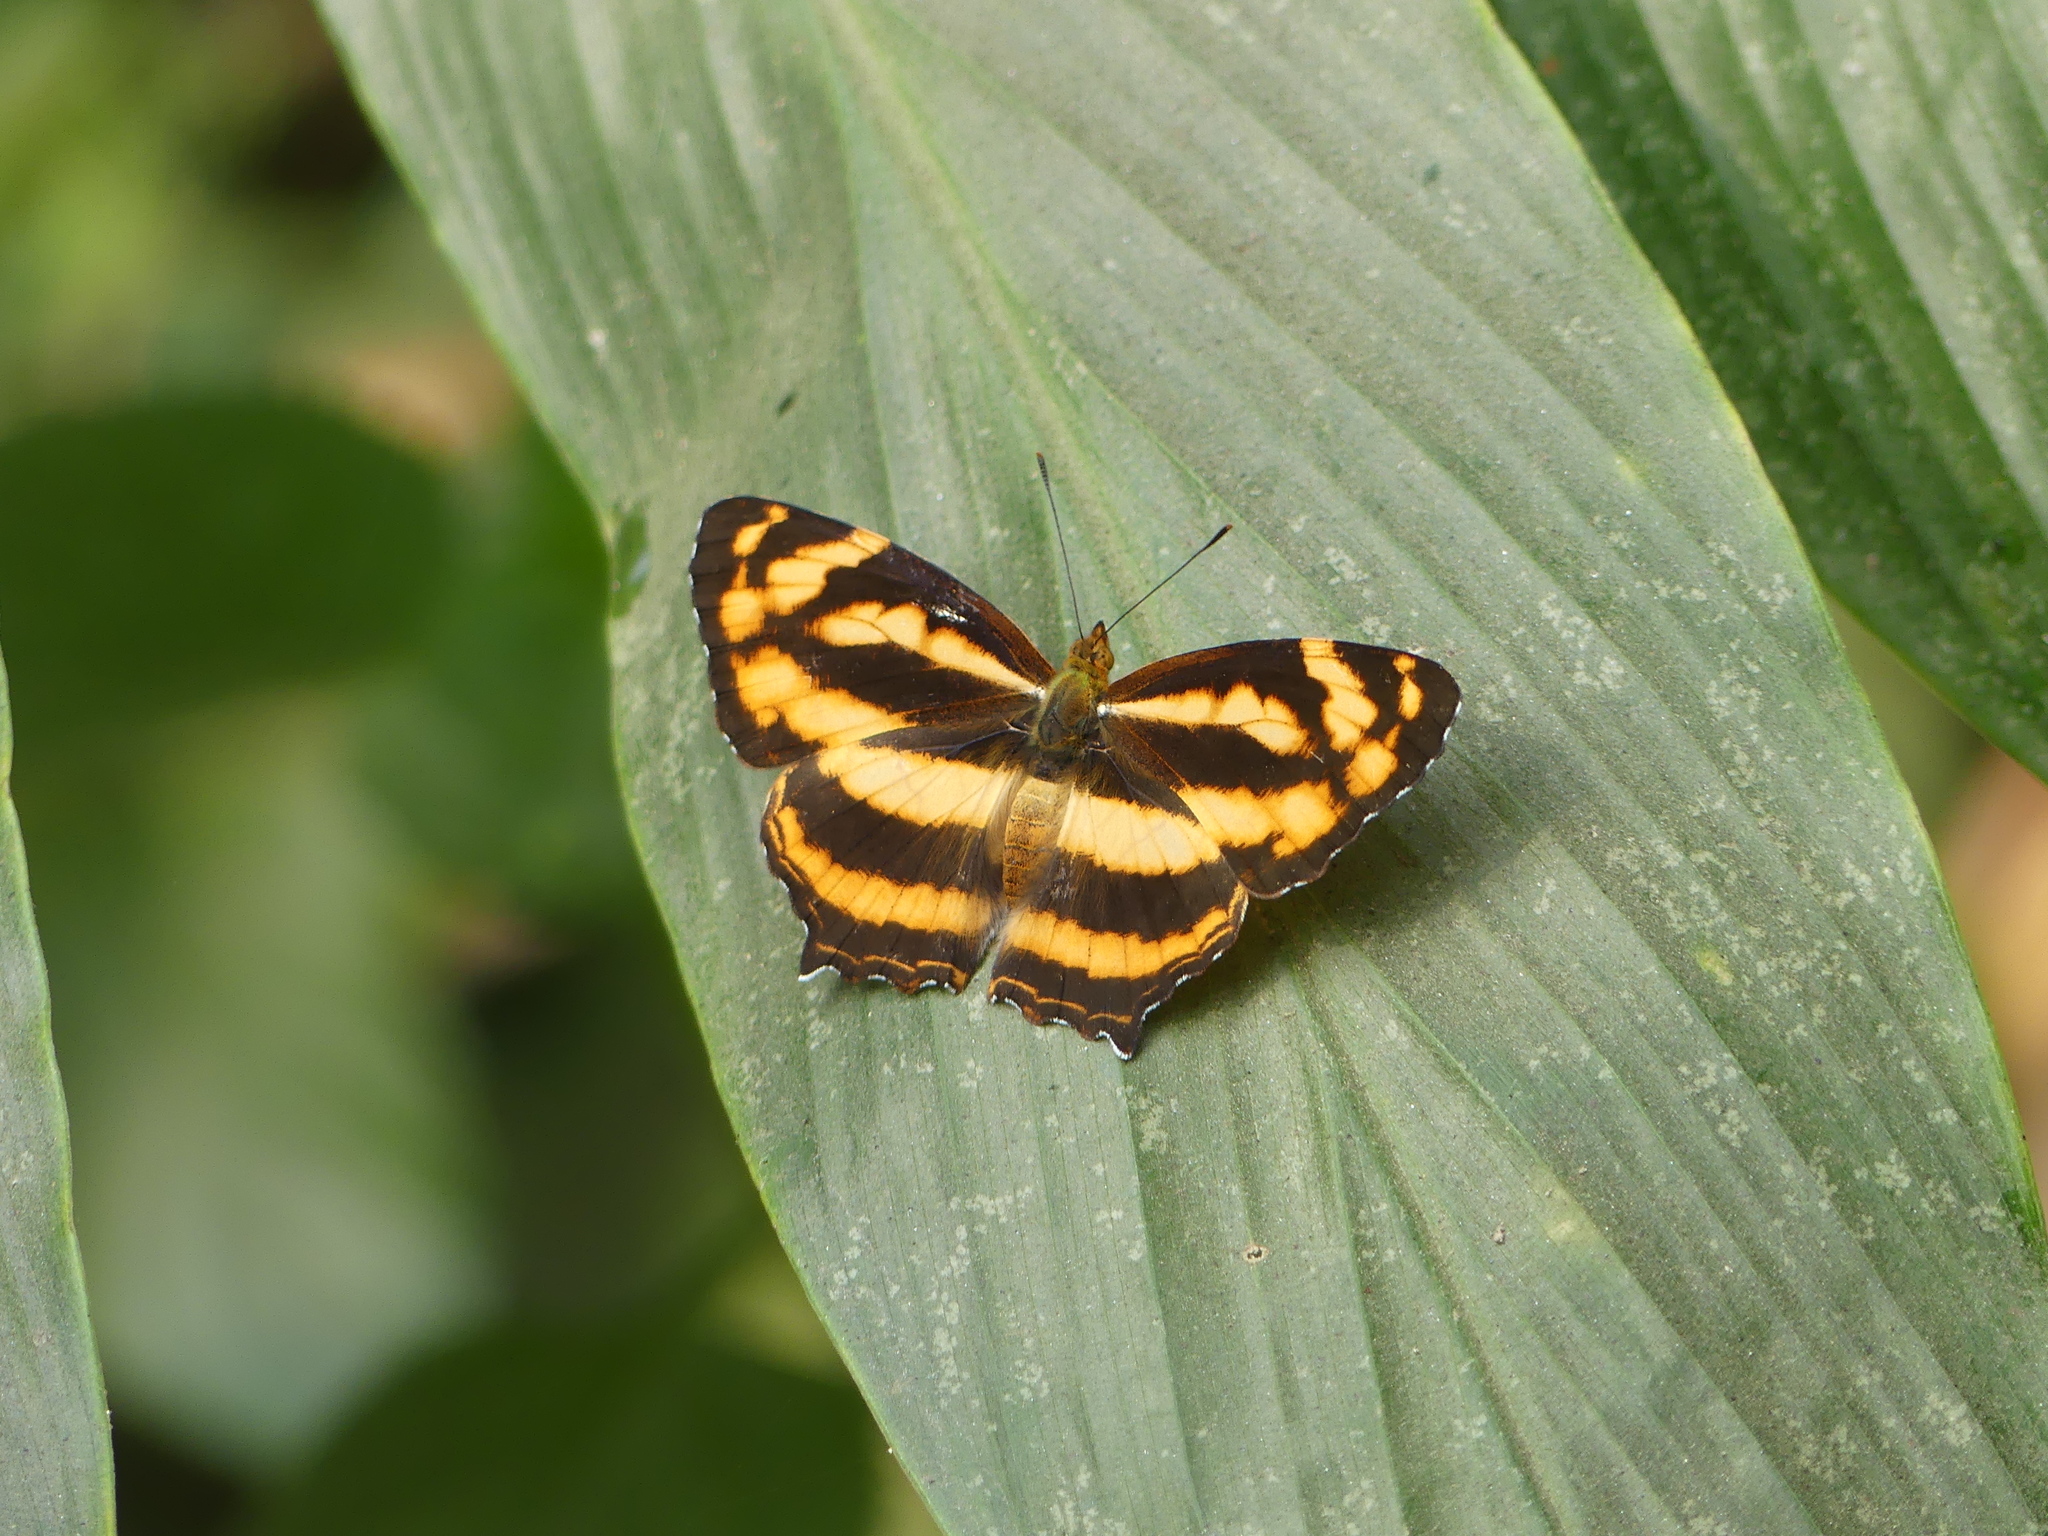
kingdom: Animalia
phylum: Arthropoda
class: Insecta
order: Lepidoptera
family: Nymphalidae
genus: Symbrenthia
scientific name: Symbrenthia hypselis
